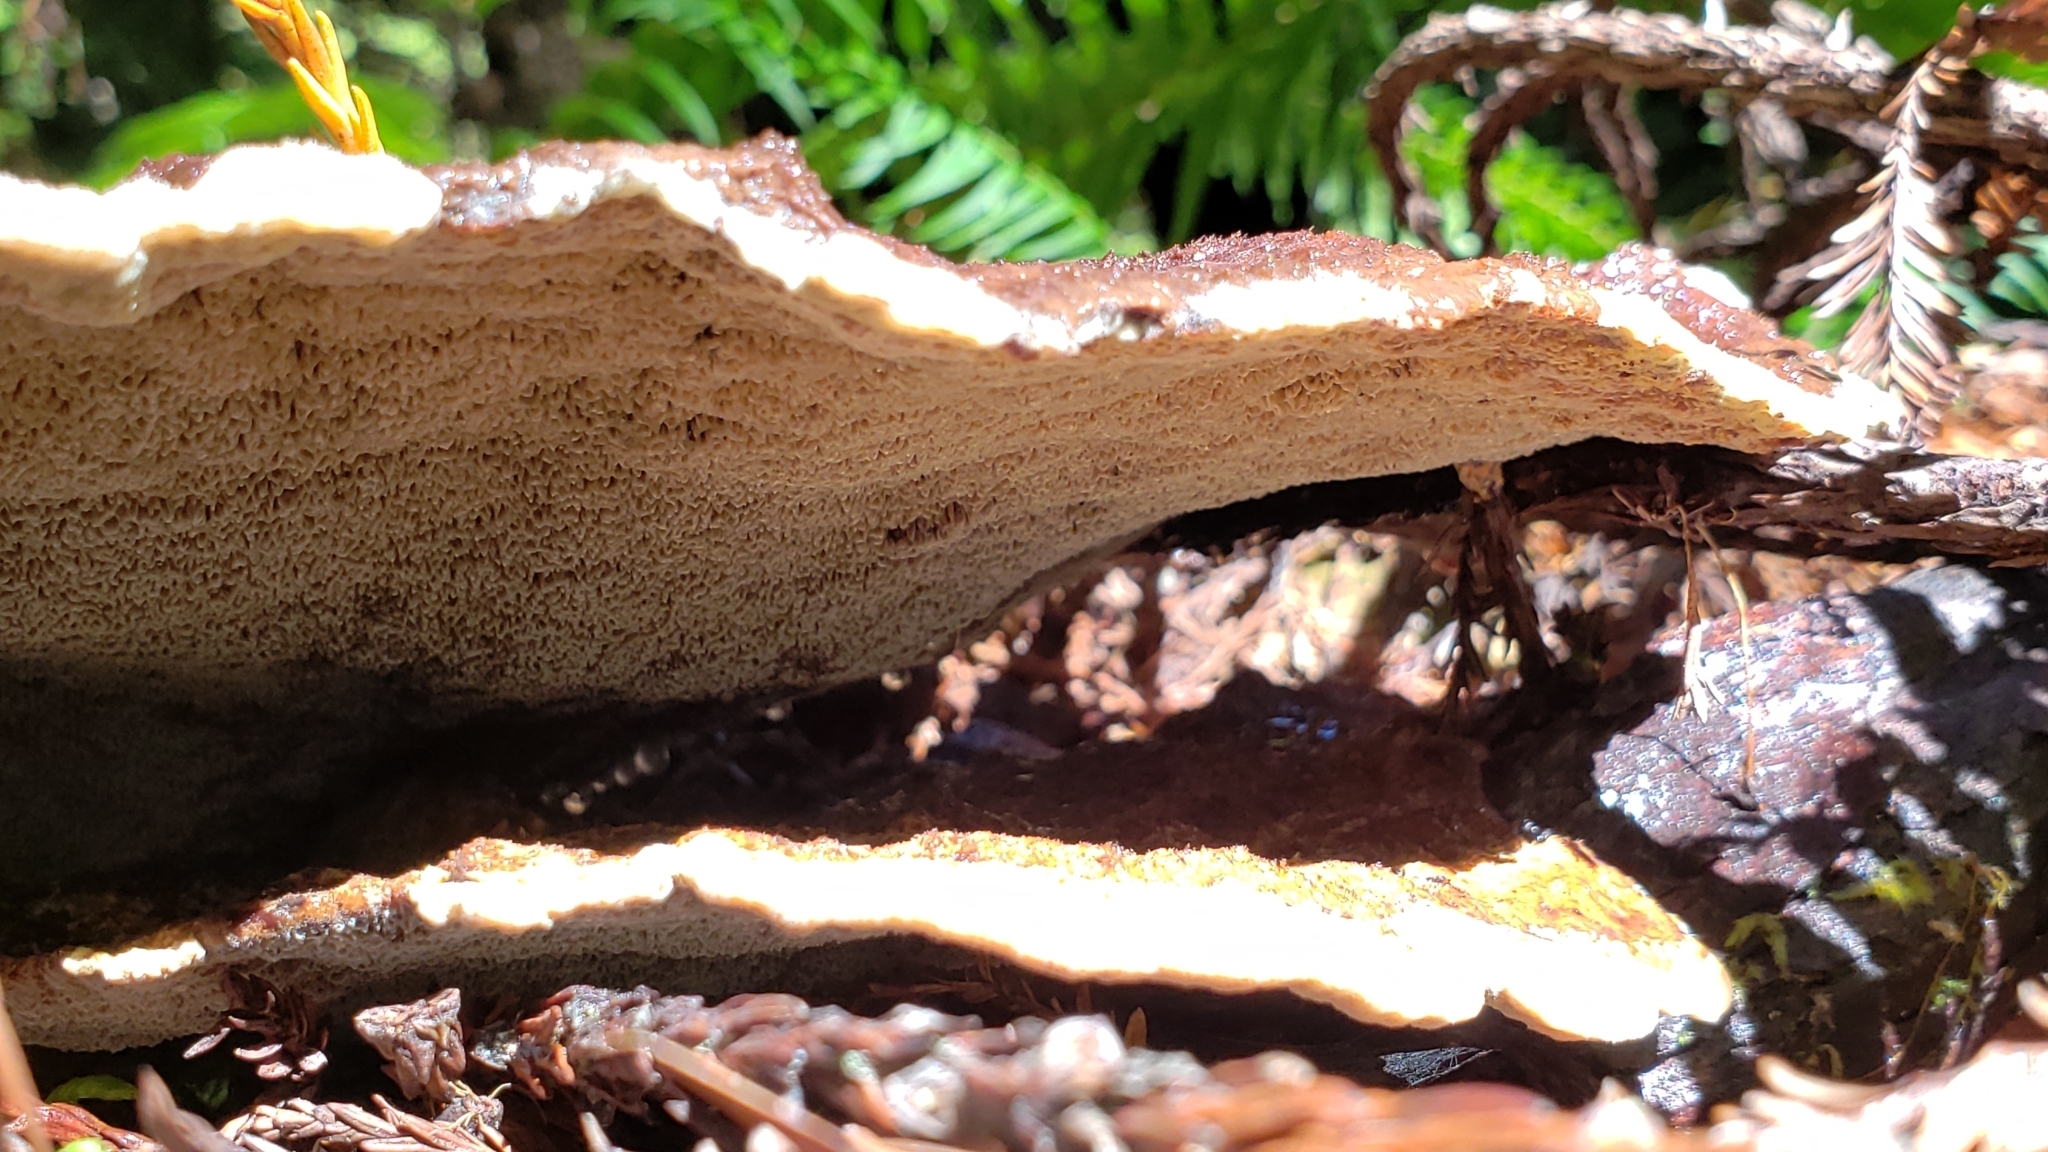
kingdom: Fungi
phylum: Basidiomycota
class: Agaricomycetes
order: Polyporales
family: Laetiporaceae
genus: Phaeolus
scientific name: Phaeolus schweinitzii
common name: Dyer's mazegill
